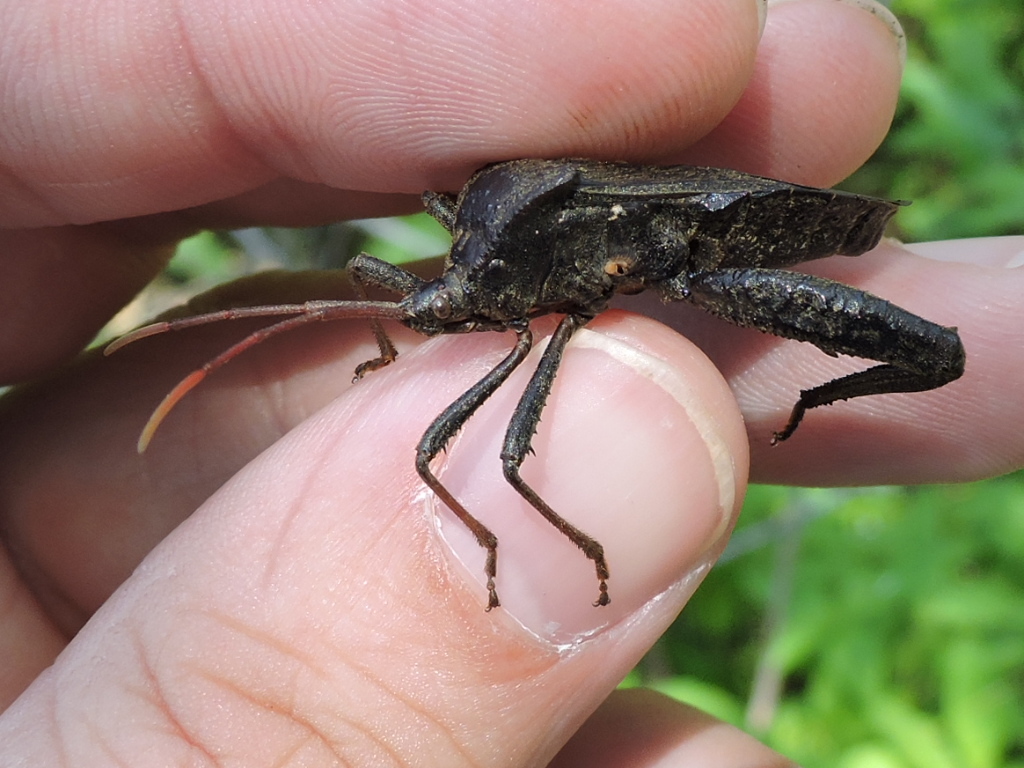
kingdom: Animalia
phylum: Arthropoda
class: Insecta
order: Hemiptera
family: Coreidae
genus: Acanthocephala
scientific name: Acanthocephala femorata
